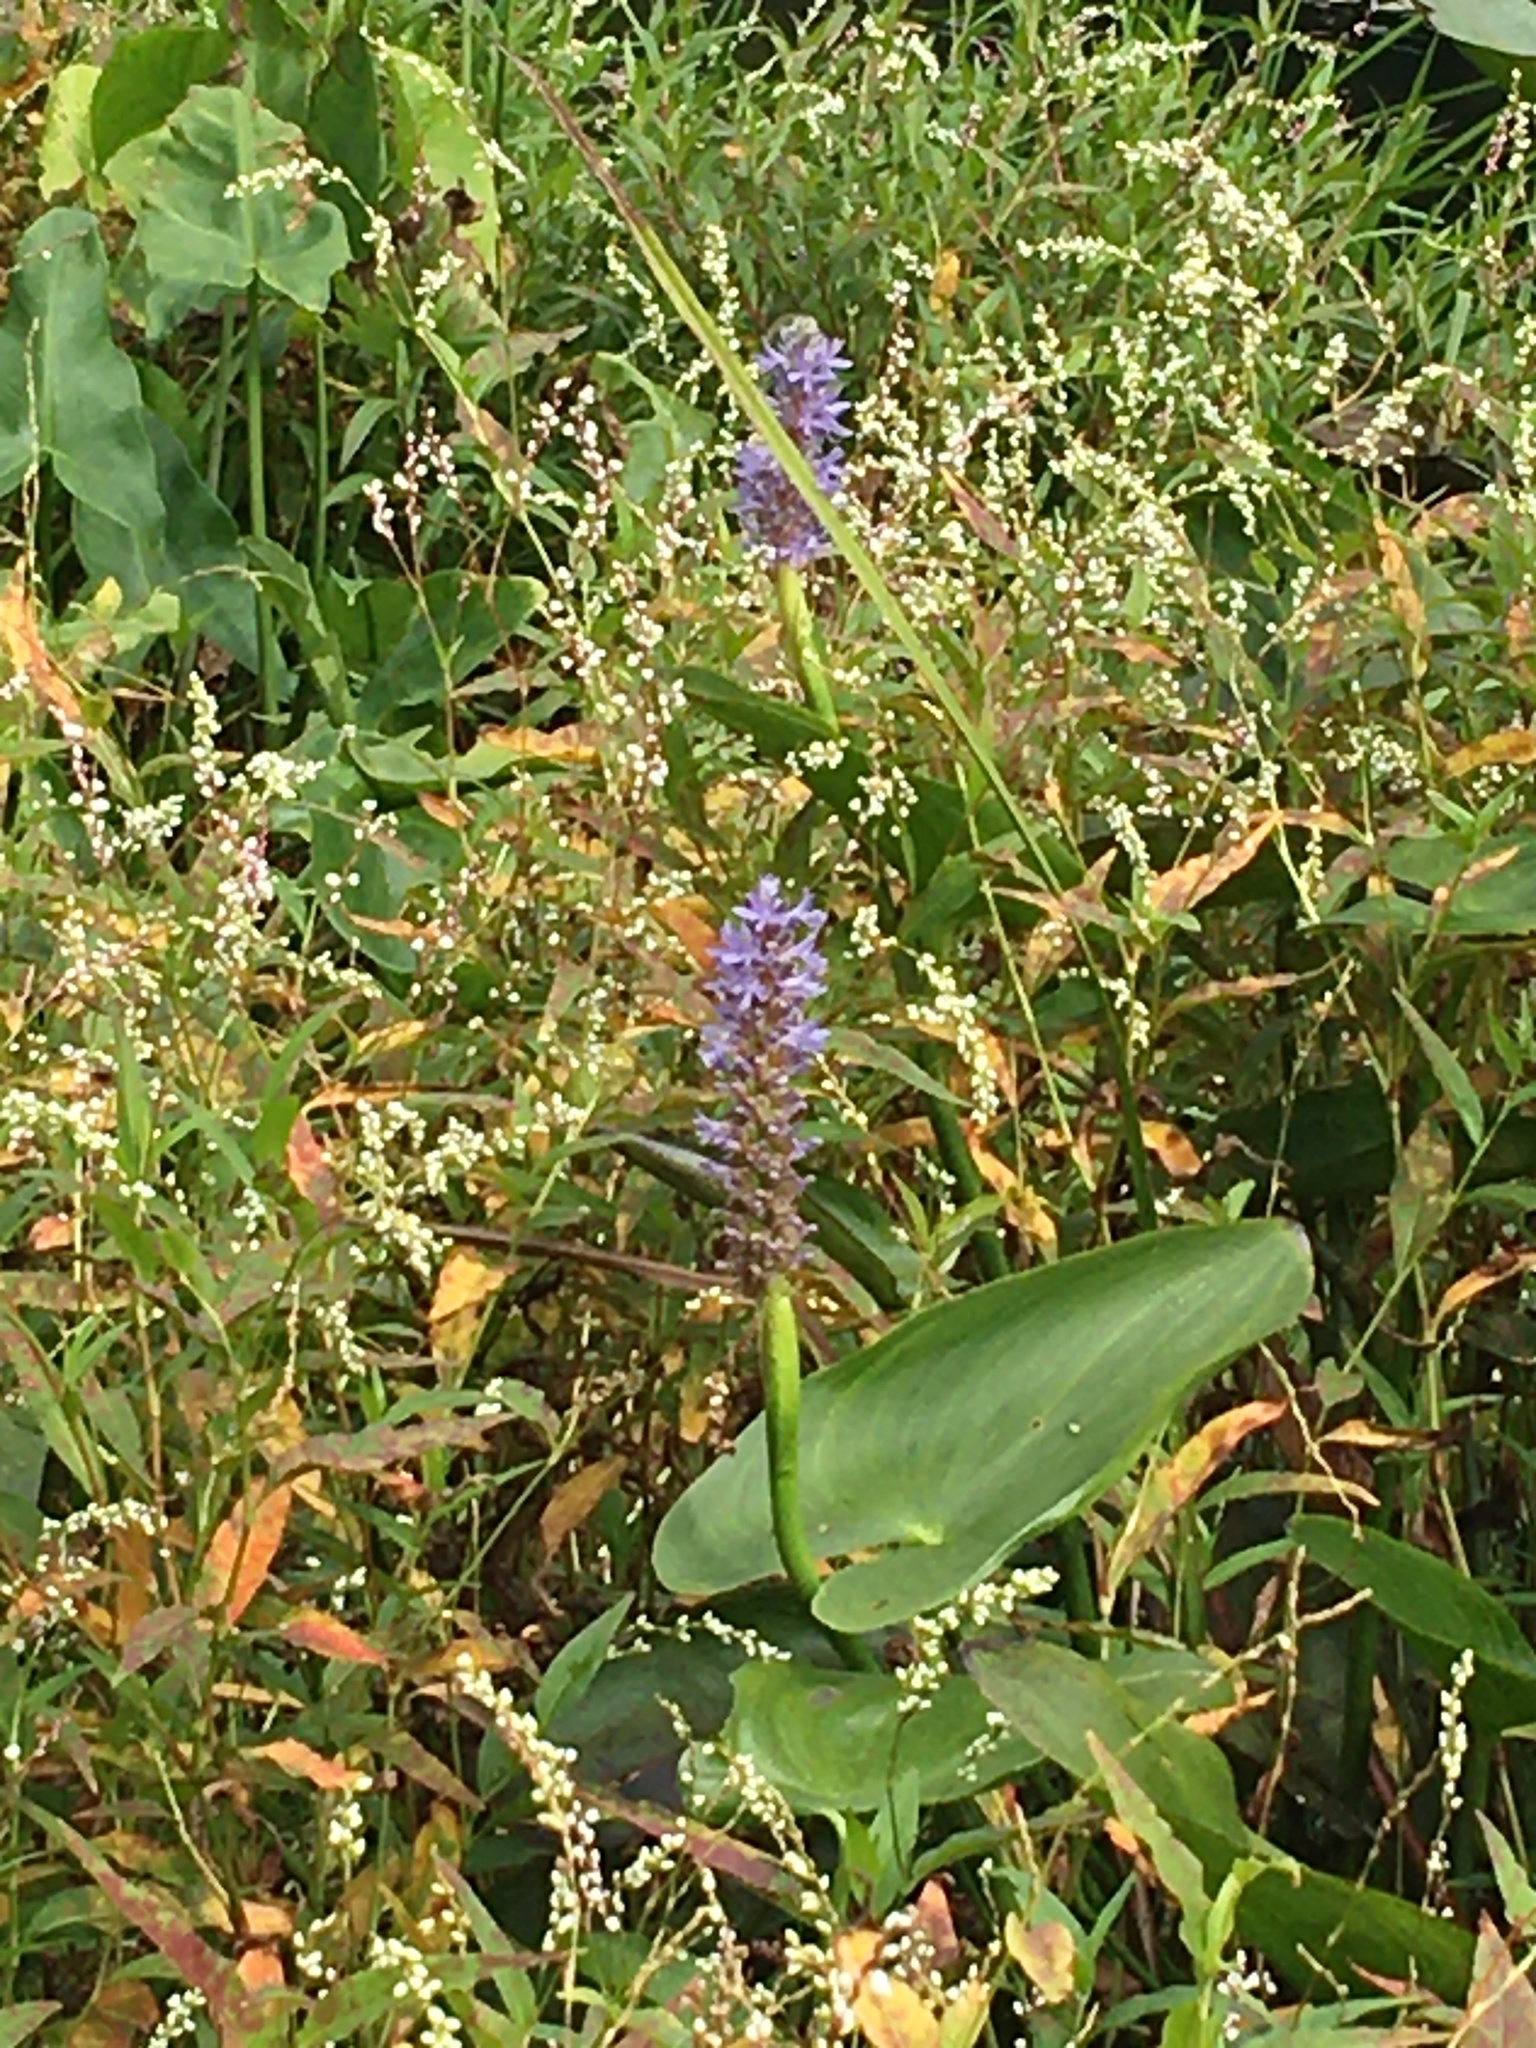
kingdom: Plantae
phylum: Tracheophyta
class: Liliopsida
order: Commelinales
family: Pontederiaceae
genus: Pontederia
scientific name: Pontederia cordata
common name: Pickerelweed
